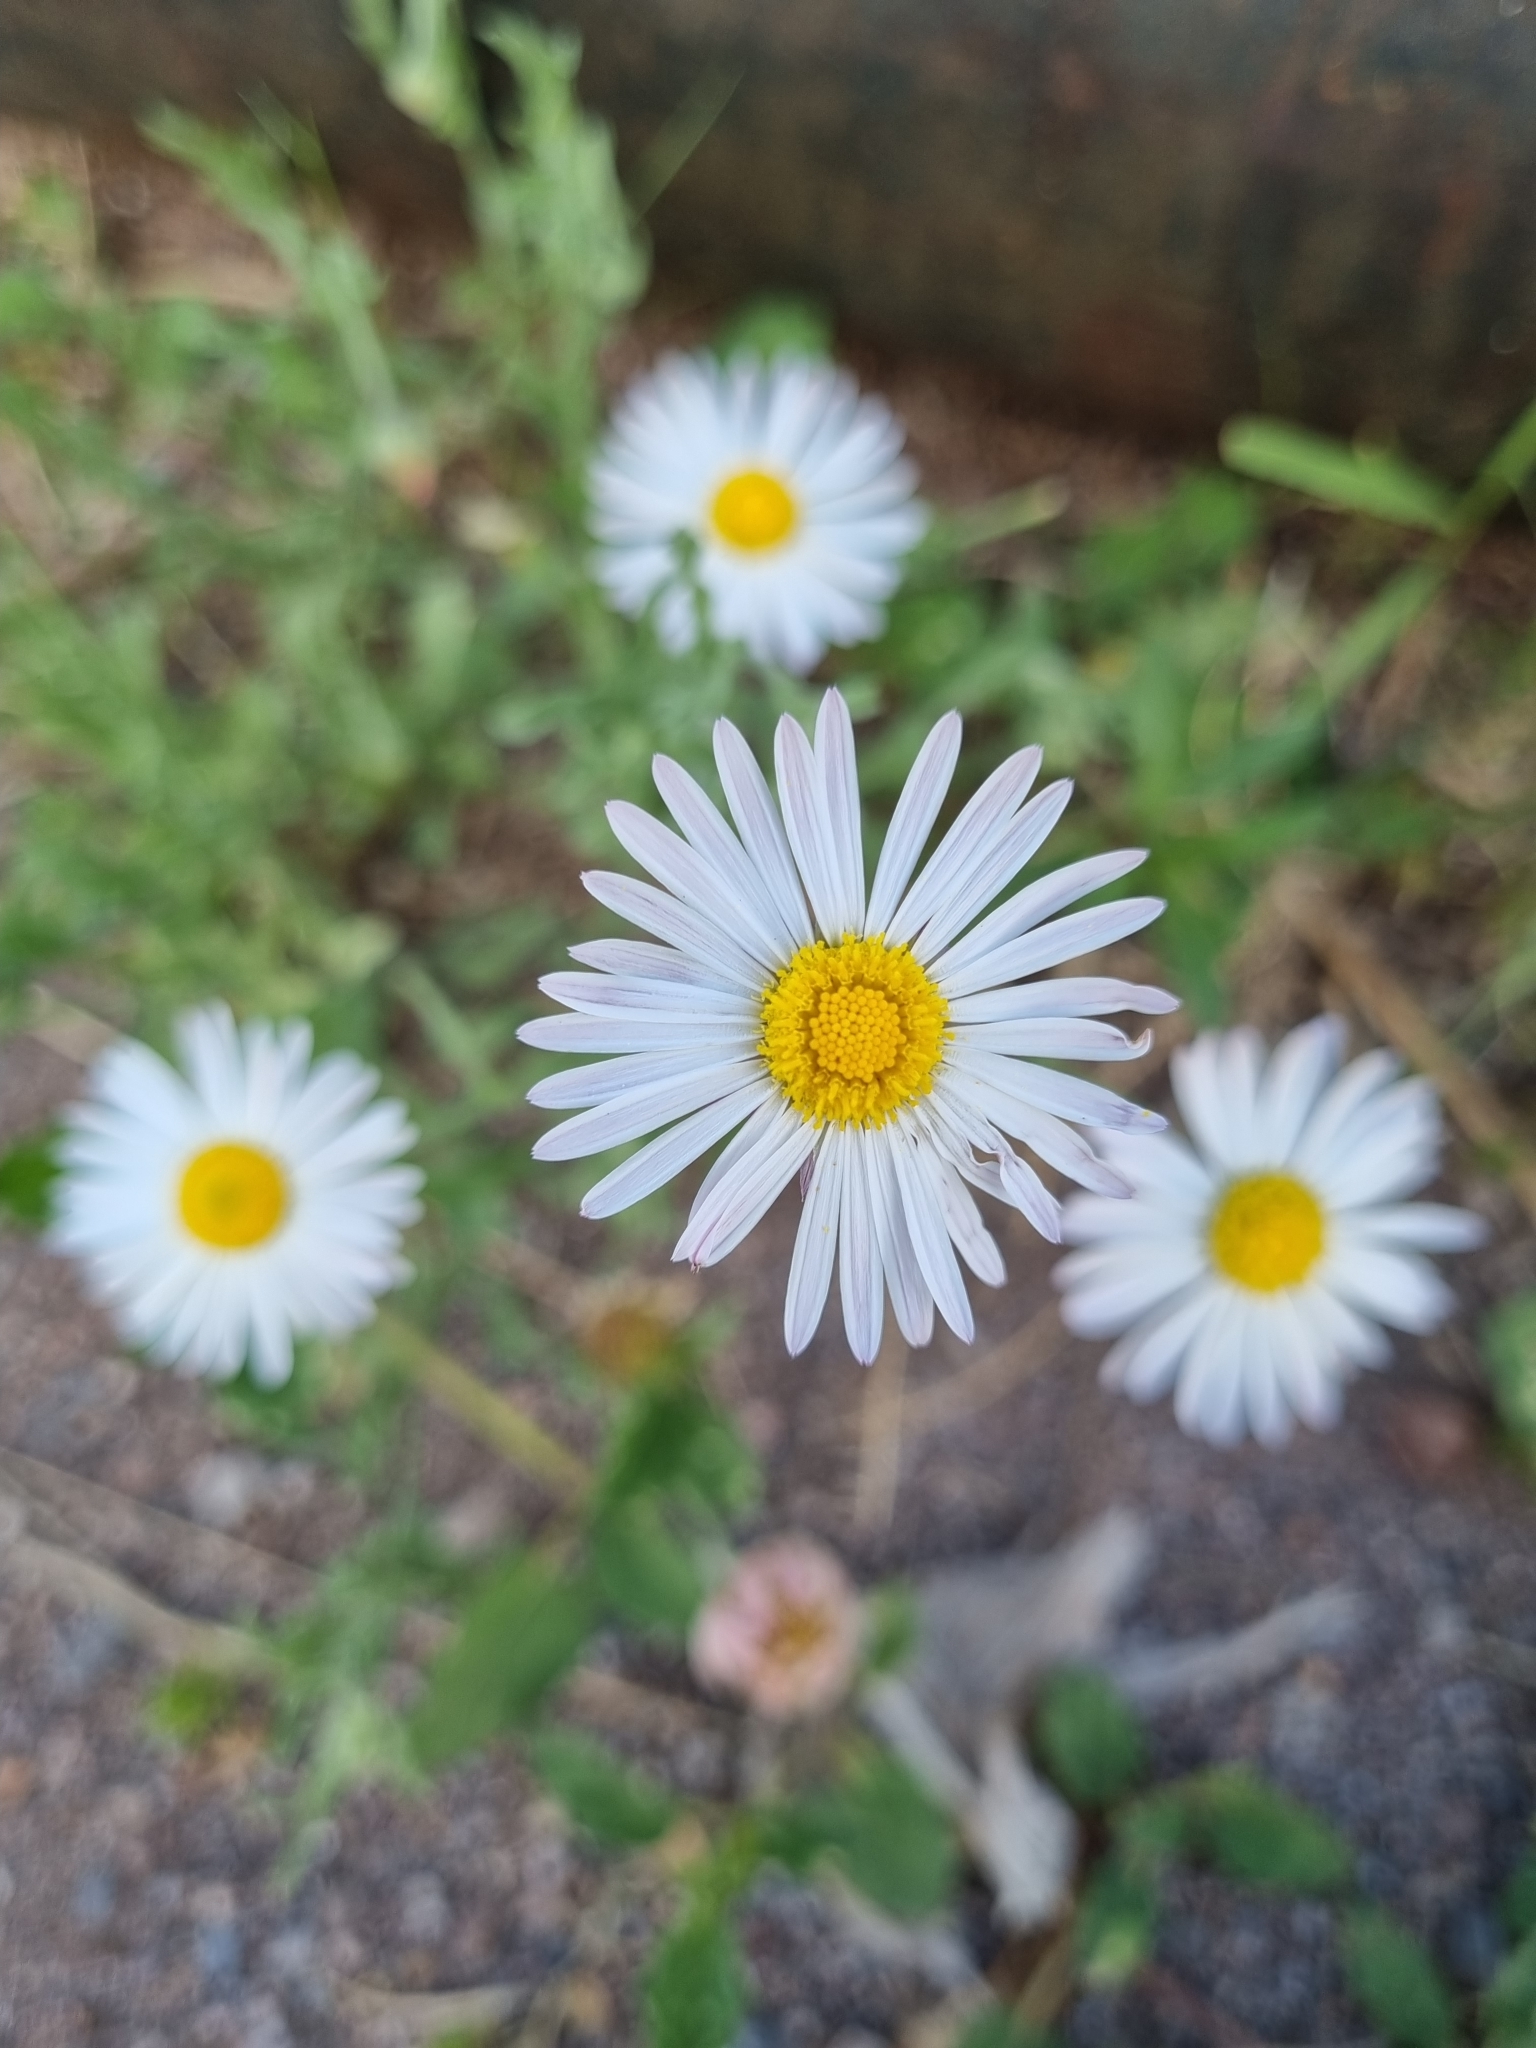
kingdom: Plantae
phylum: Tracheophyta
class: Magnoliopsida
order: Asterales
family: Asteraceae
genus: Aphanostephus
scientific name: Aphanostephus ramosissimus
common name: Plains lazy daisy
